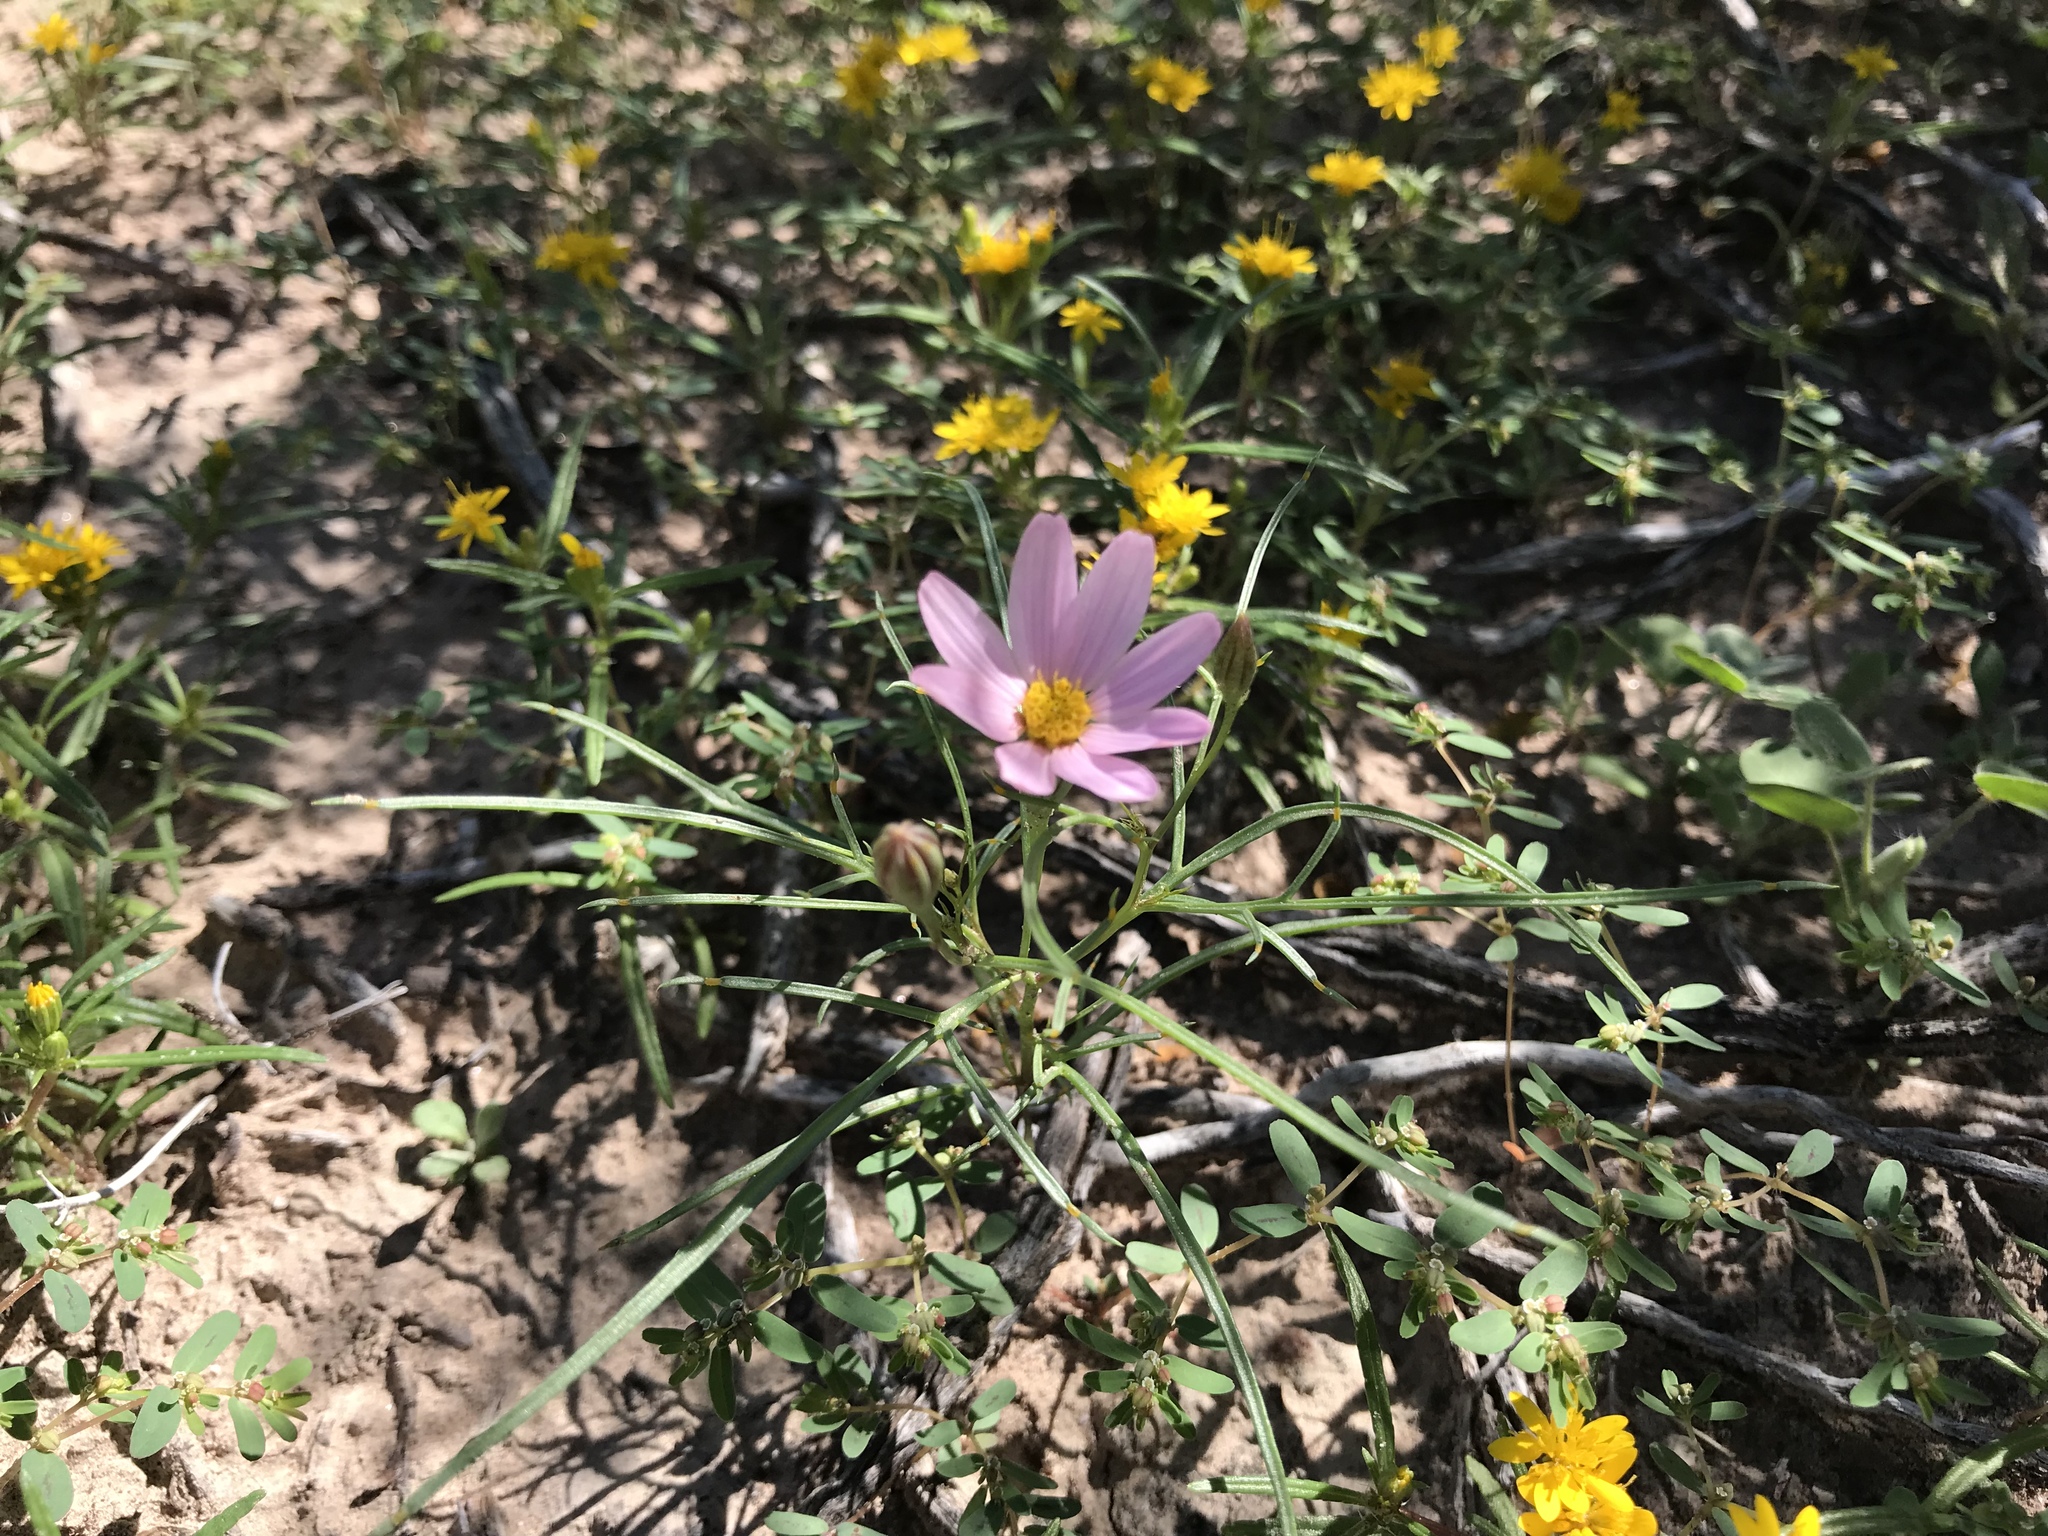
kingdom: Plantae
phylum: Tracheophyta
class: Magnoliopsida
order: Asterales
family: Asteraceae
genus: Nicolletia
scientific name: Nicolletia edwardsii
